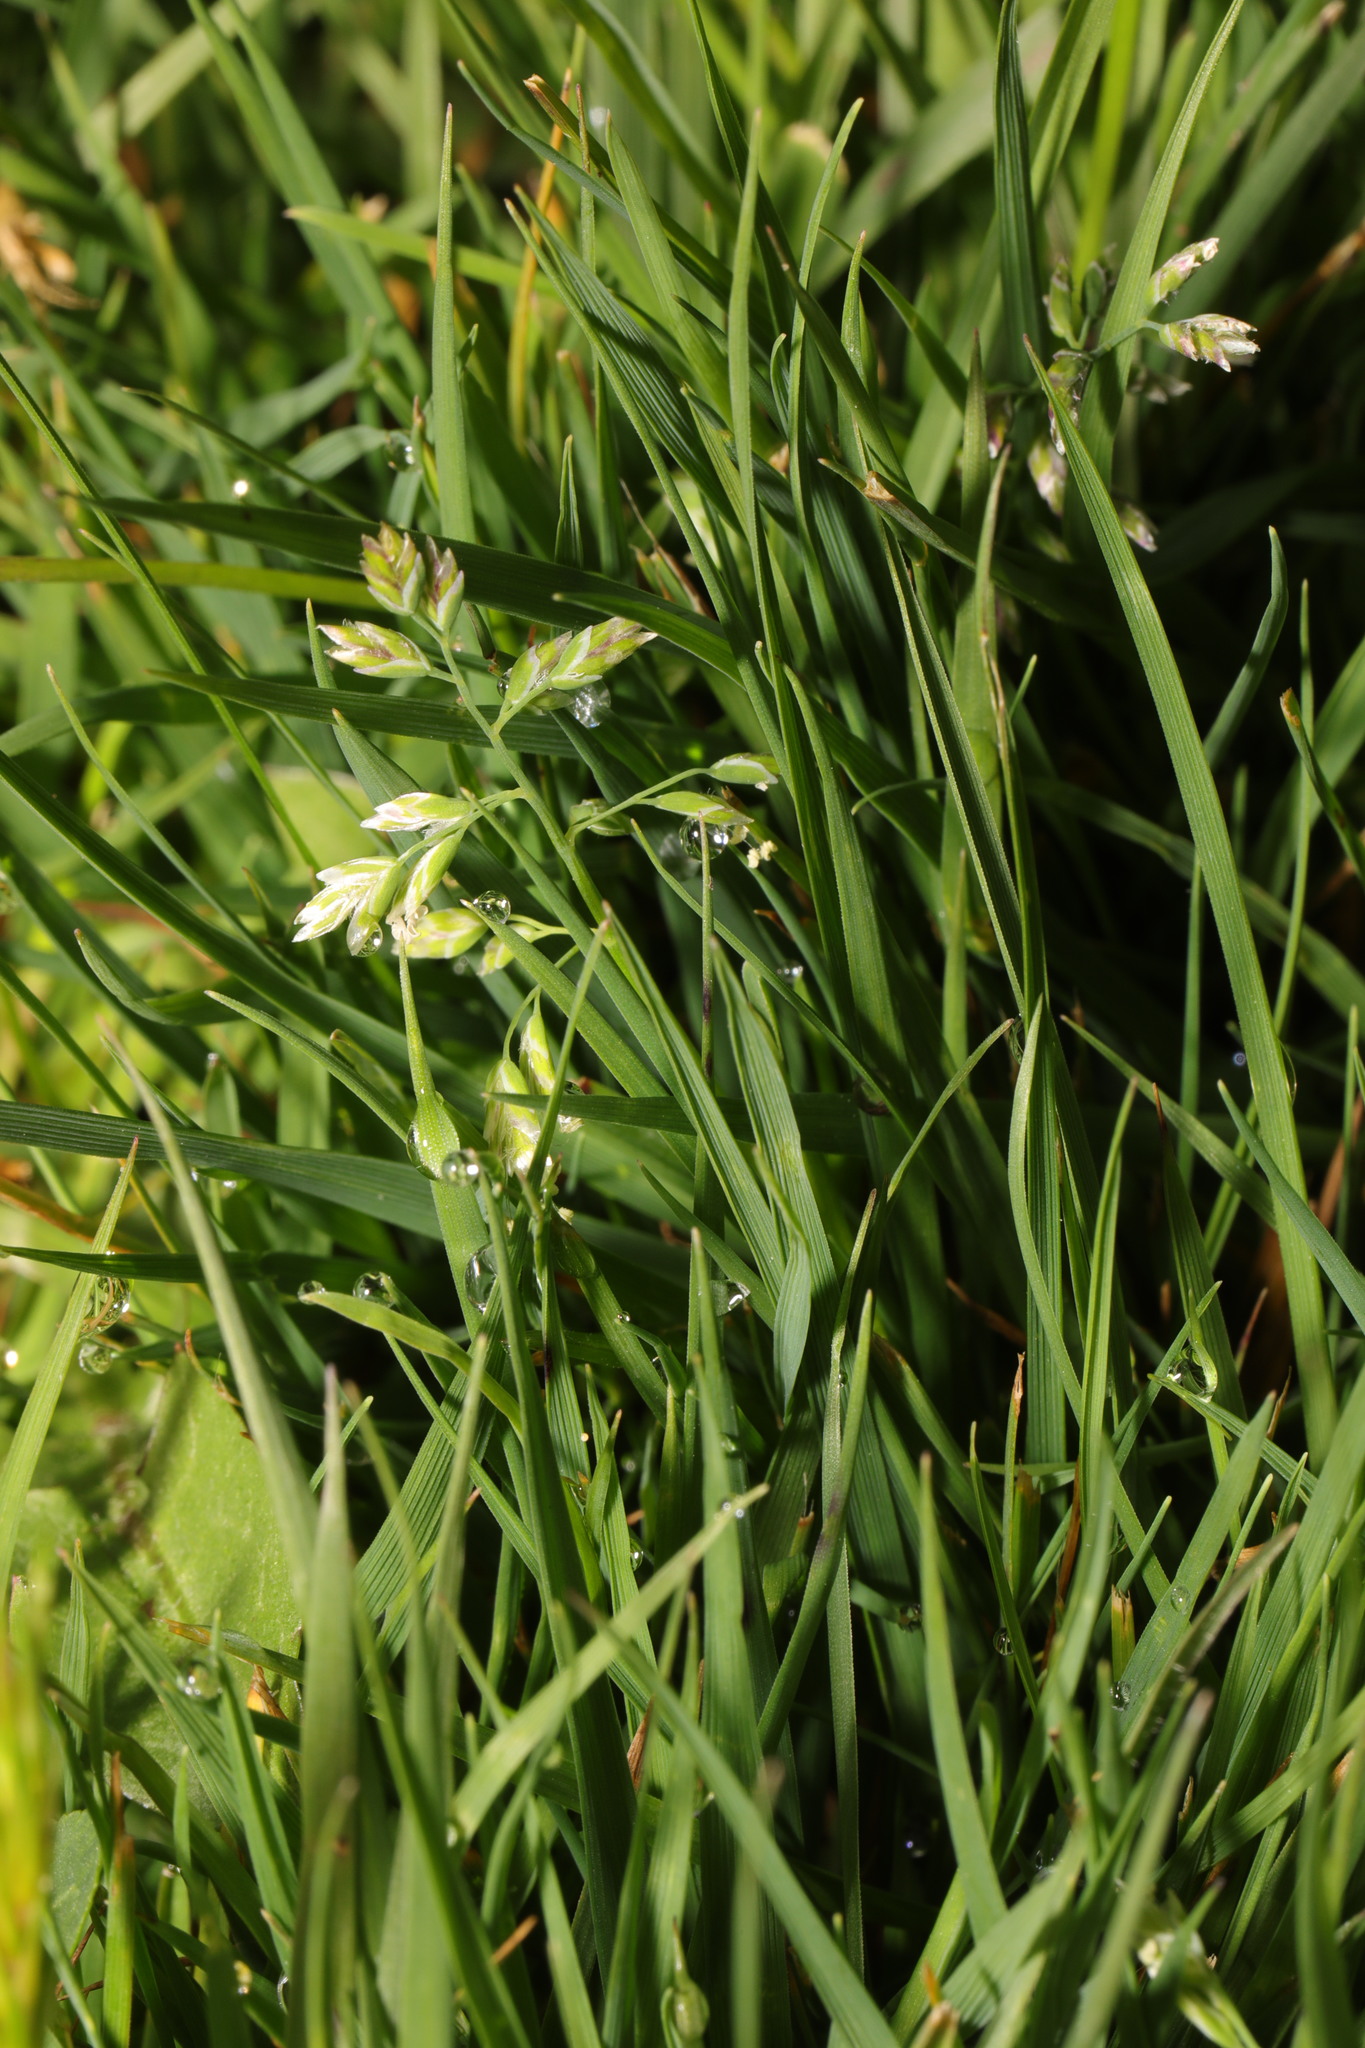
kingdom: Plantae
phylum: Tracheophyta
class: Liliopsida
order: Poales
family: Poaceae
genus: Poa
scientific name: Poa annua
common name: Annual bluegrass
